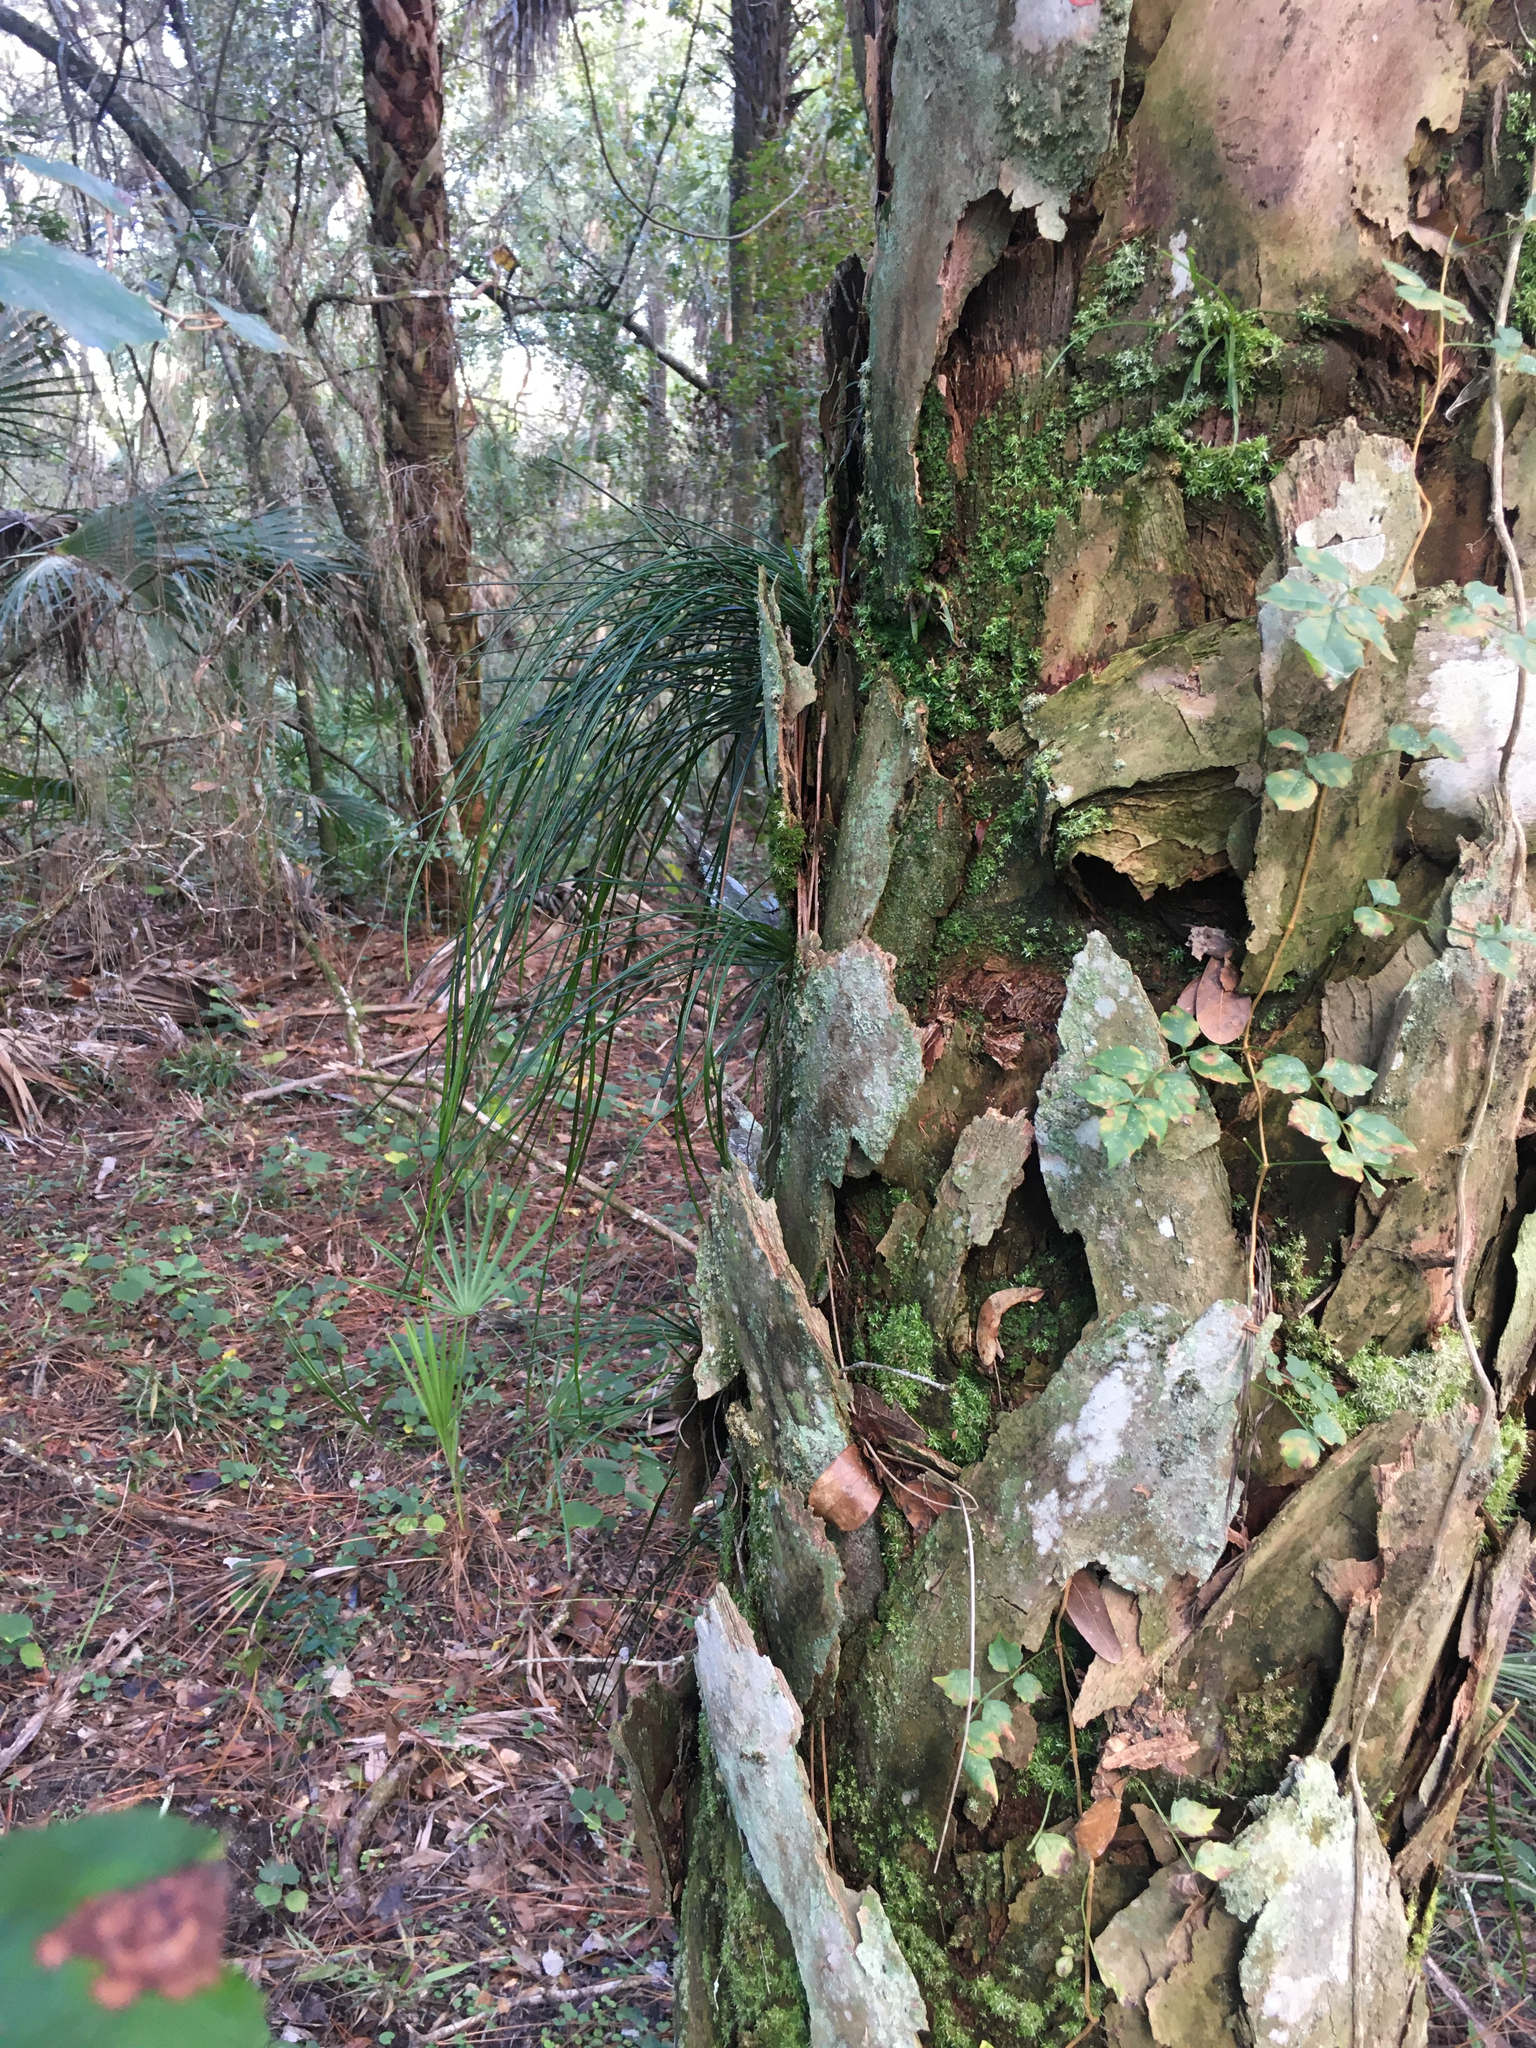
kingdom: Plantae
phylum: Tracheophyta
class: Polypodiopsida
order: Polypodiales
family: Pteridaceae
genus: Vittaria
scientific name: Vittaria lineata
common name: Shoestring fern
